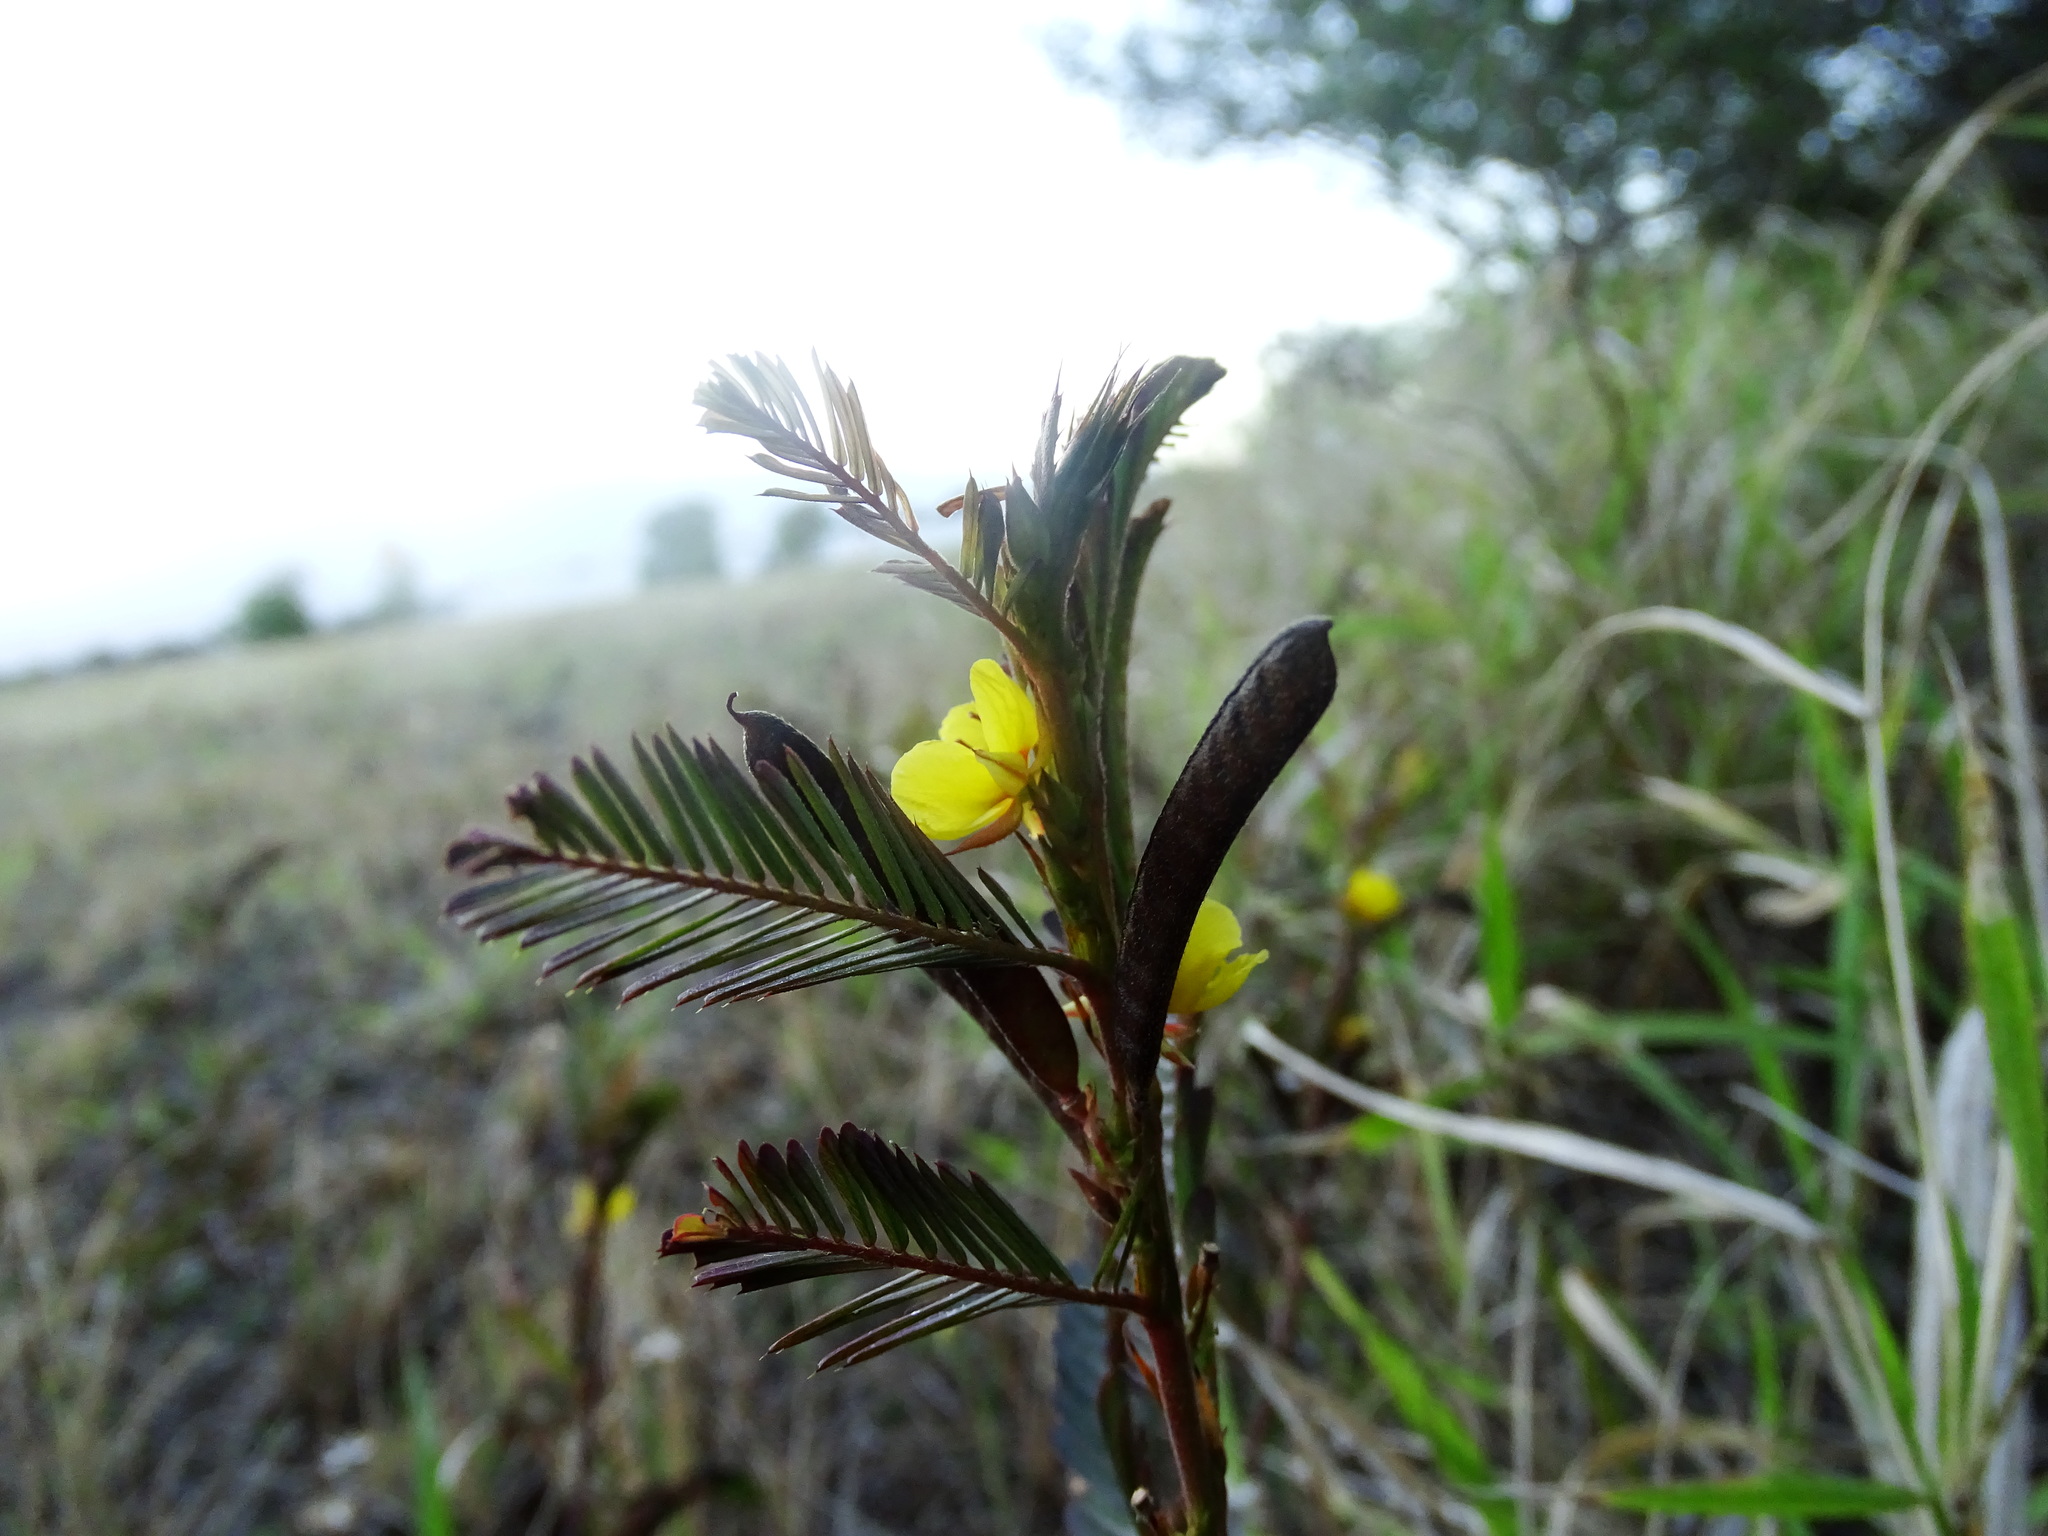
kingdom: Plantae
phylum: Tracheophyta
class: Magnoliopsida
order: Fabales
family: Fabaceae
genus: Chamaecrista
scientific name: Chamaecrista nictitans
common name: Sensitive cassia
